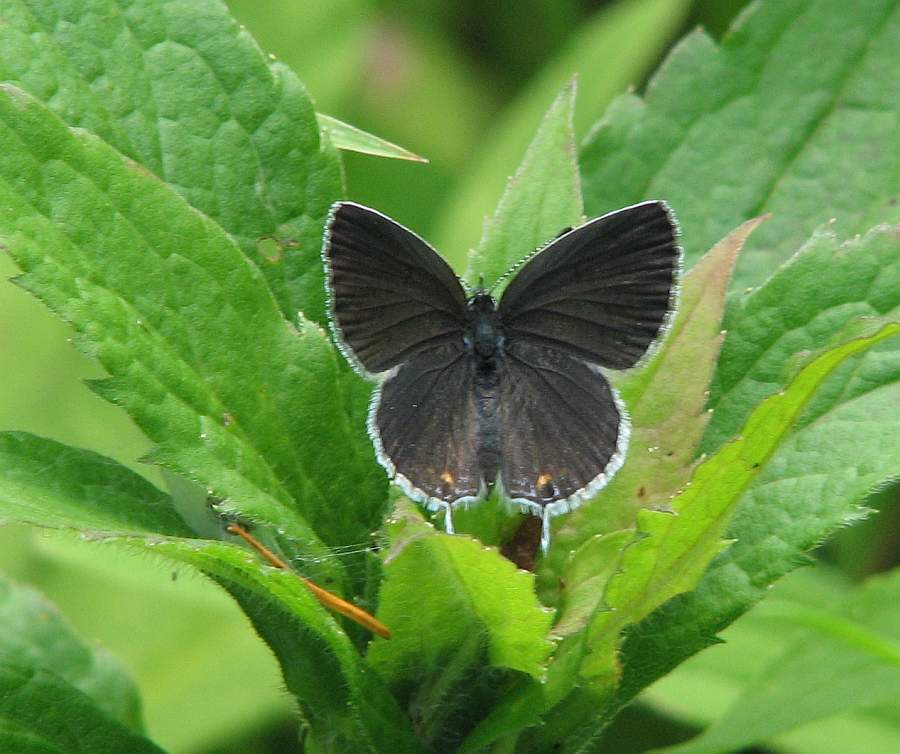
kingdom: Animalia
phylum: Arthropoda
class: Insecta
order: Lepidoptera
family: Lycaenidae
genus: Elkalyce
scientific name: Elkalyce comyntas
